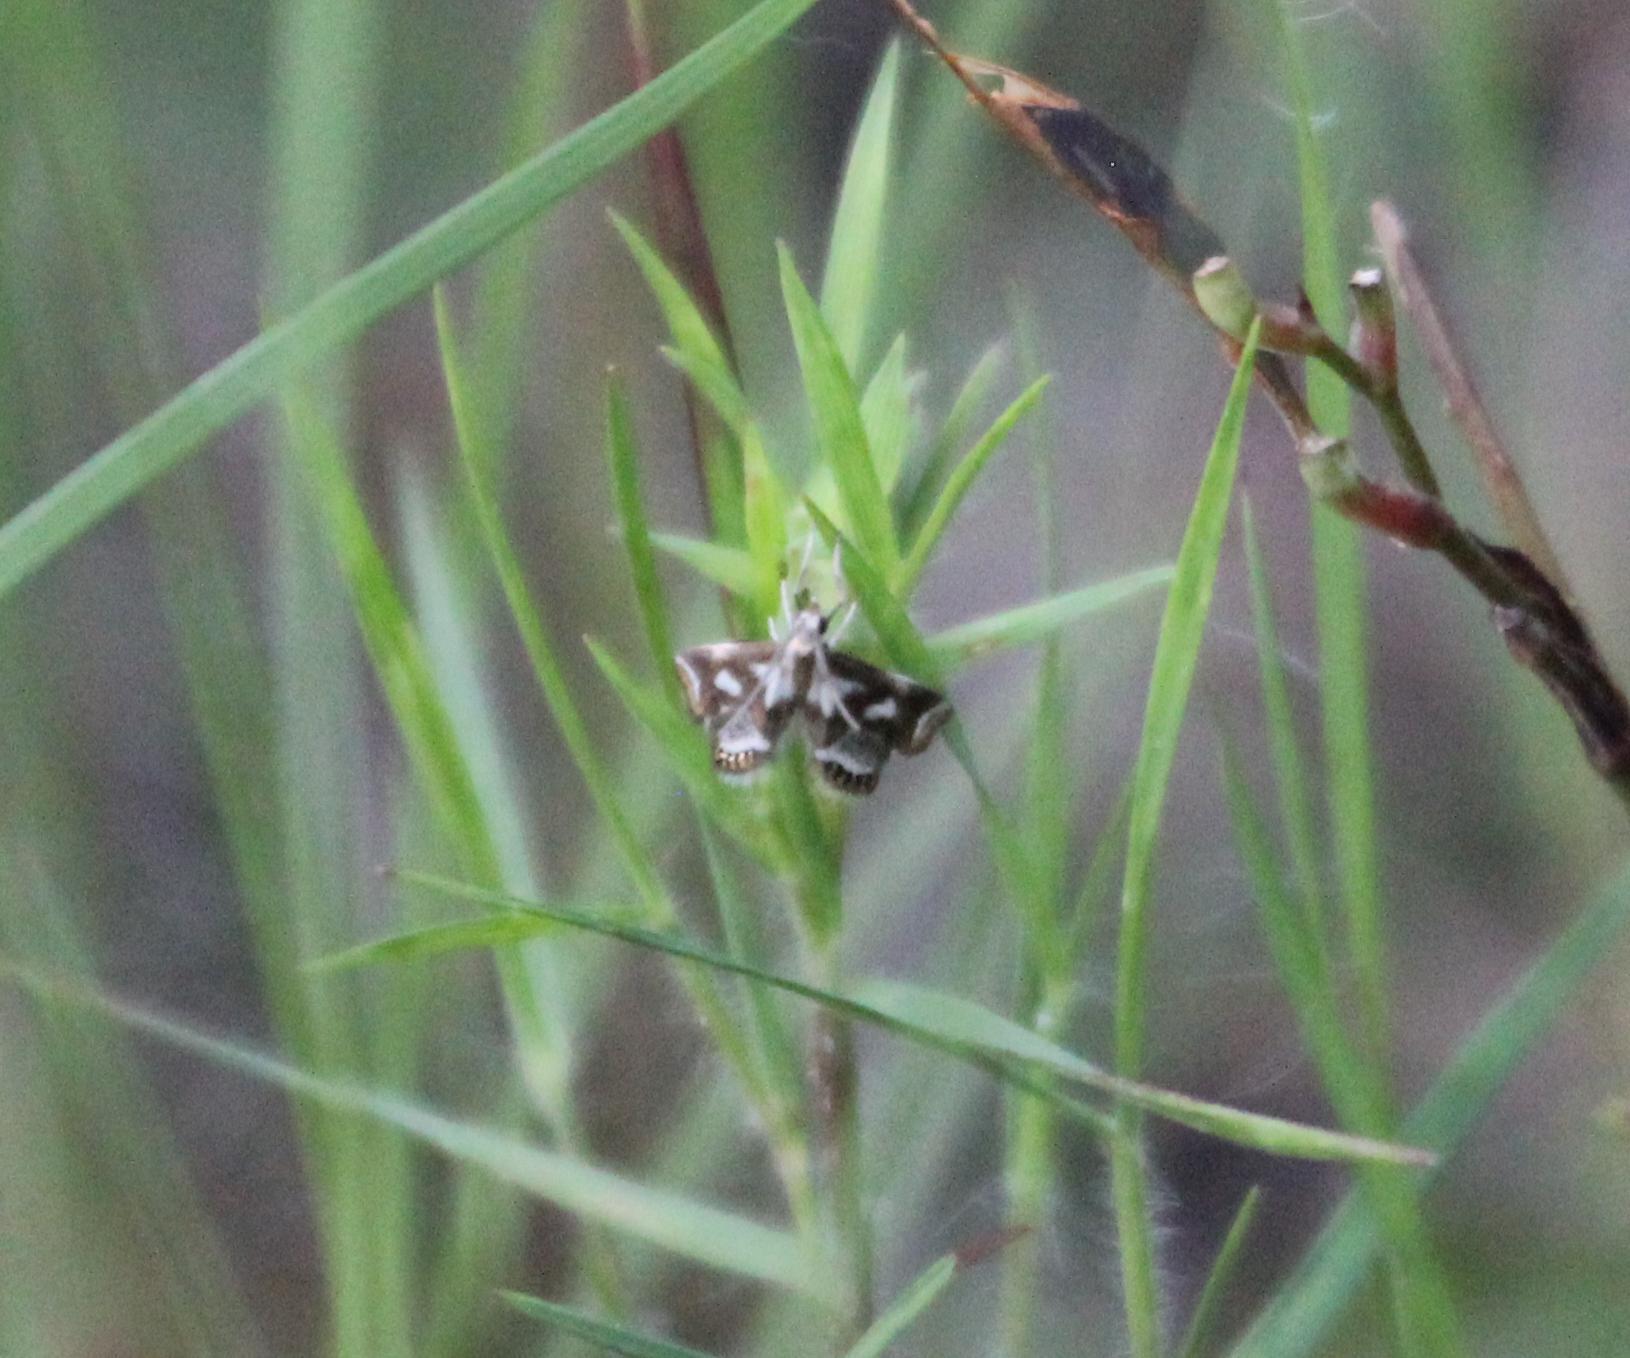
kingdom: Animalia
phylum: Arthropoda
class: Insecta
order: Lepidoptera
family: Crambidae
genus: Chrysendeton
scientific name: Chrysendeton imitabilis
